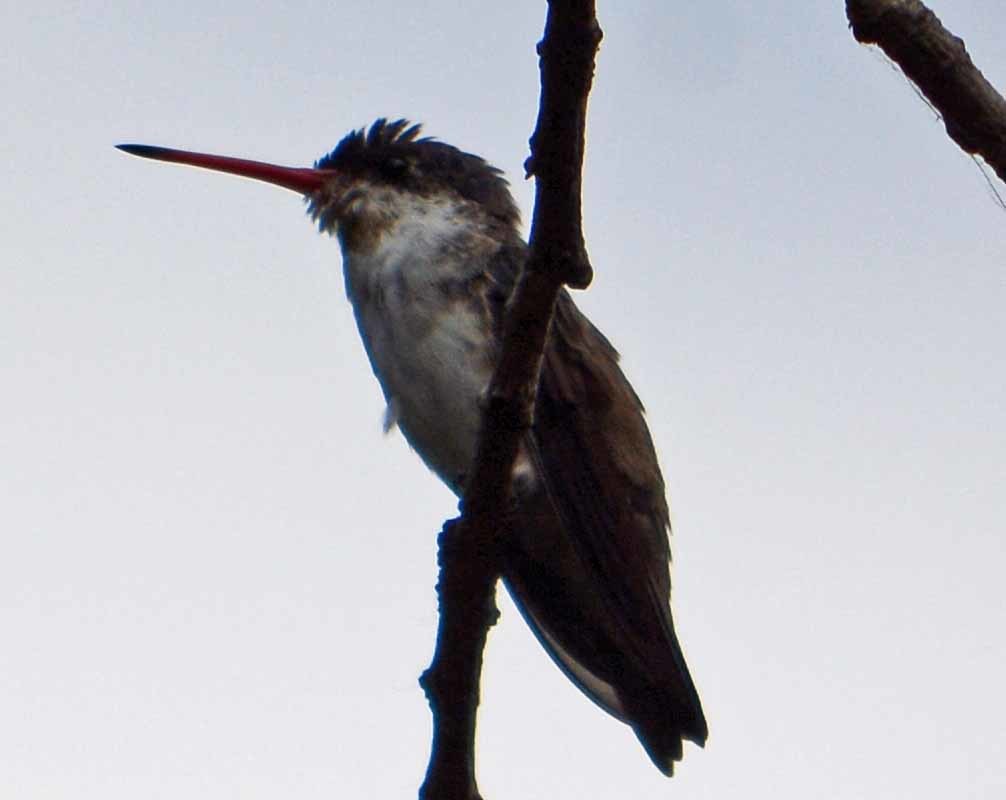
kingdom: Animalia
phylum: Chordata
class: Aves
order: Apodiformes
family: Trochilidae
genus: Leucolia
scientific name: Leucolia violiceps
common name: Violet-crowned hummingbird
